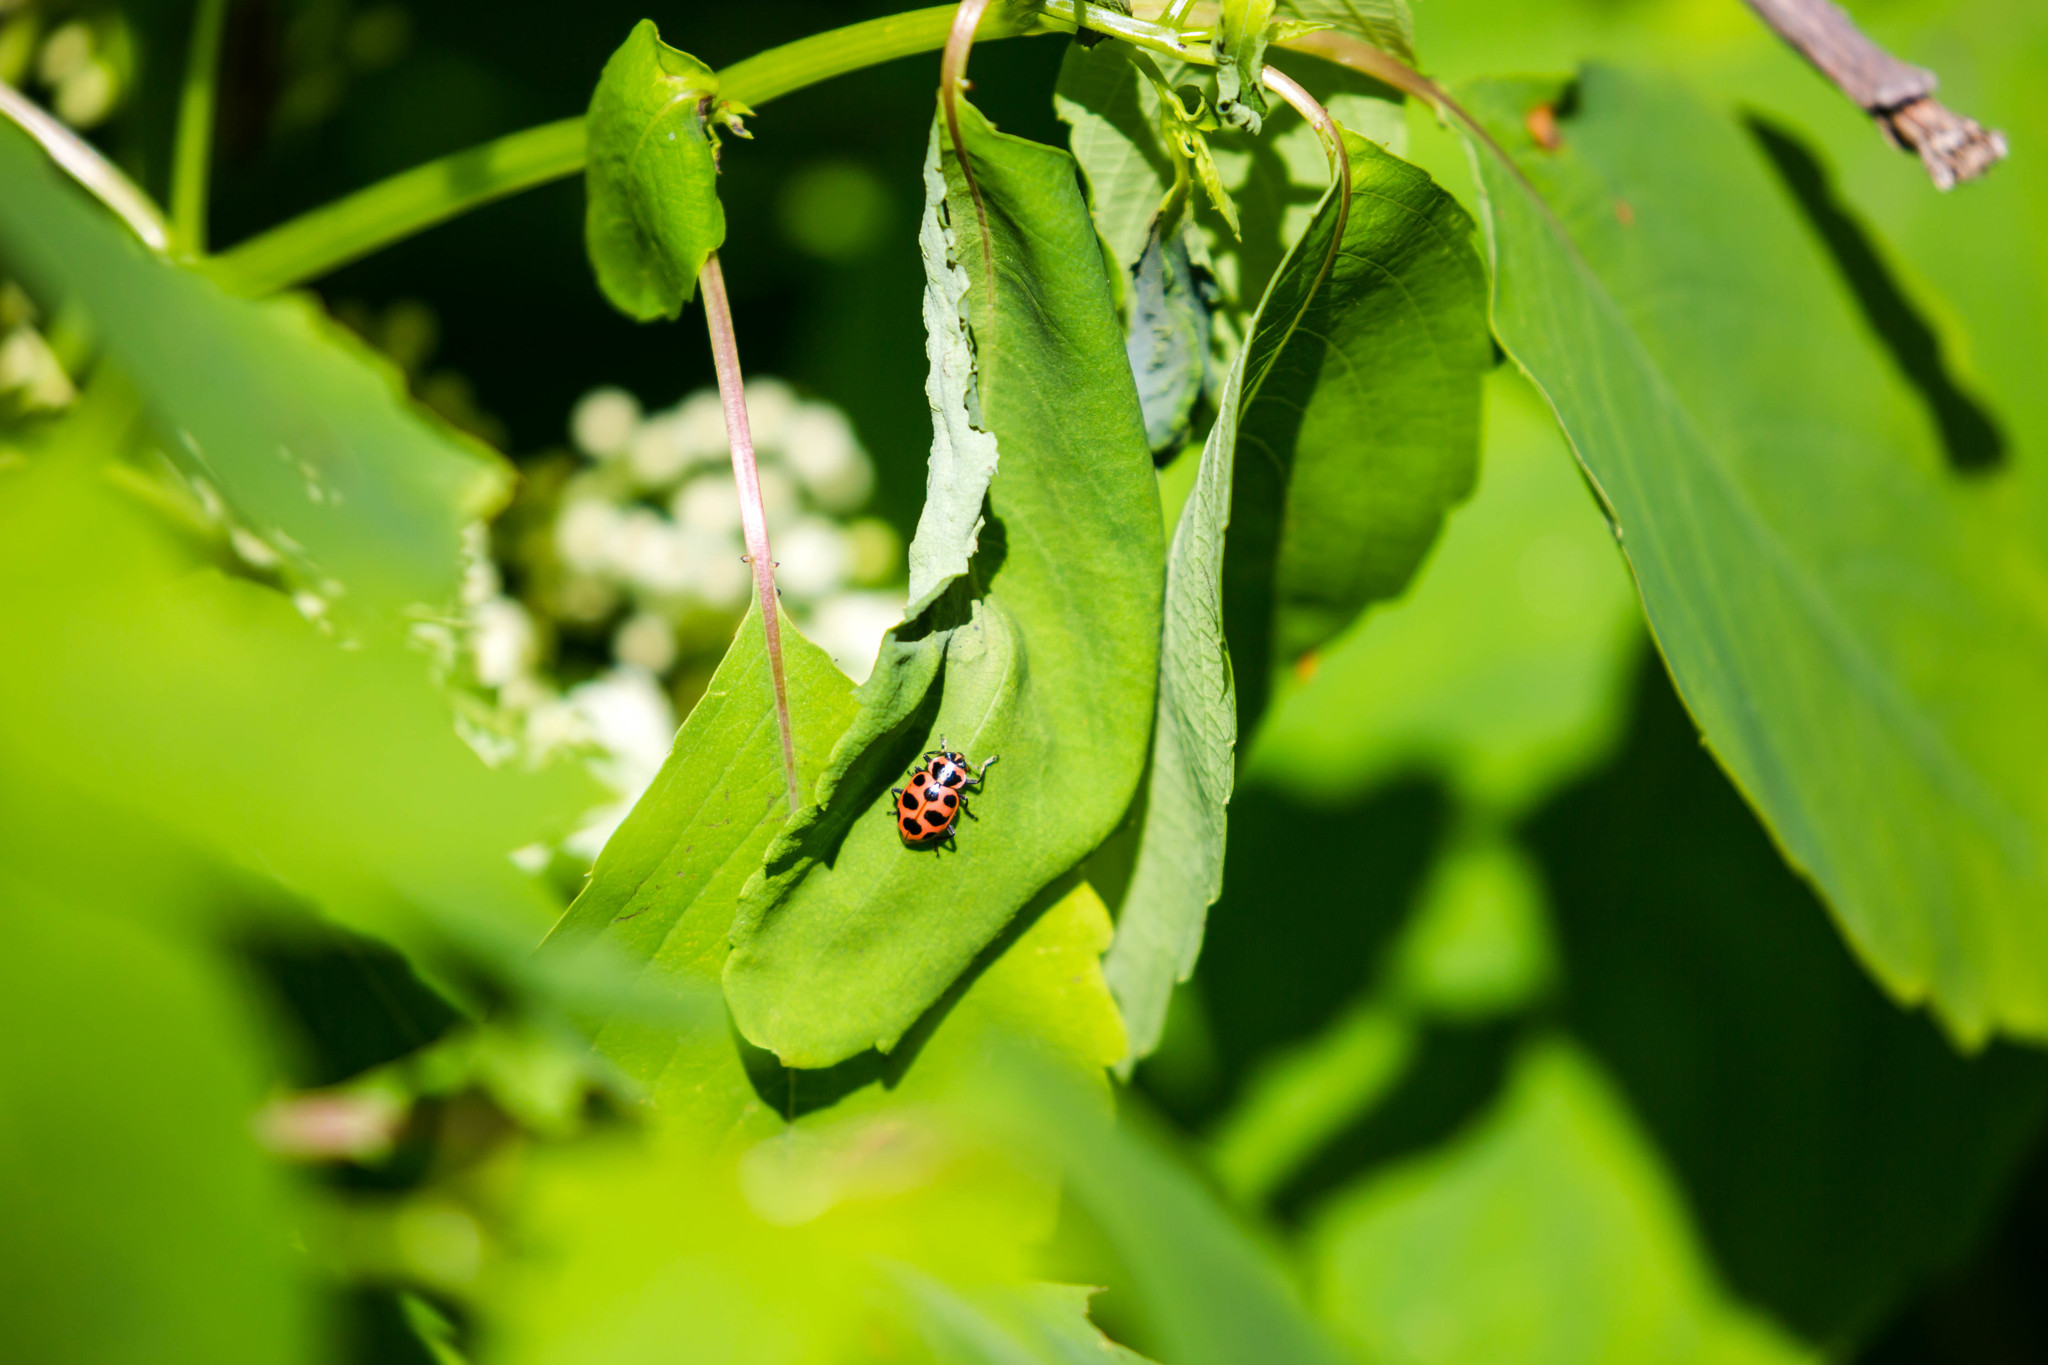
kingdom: Animalia
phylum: Arthropoda
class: Insecta
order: Coleoptera
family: Coccinellidae
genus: Coleomegilla
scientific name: Coleomegilla maculata
